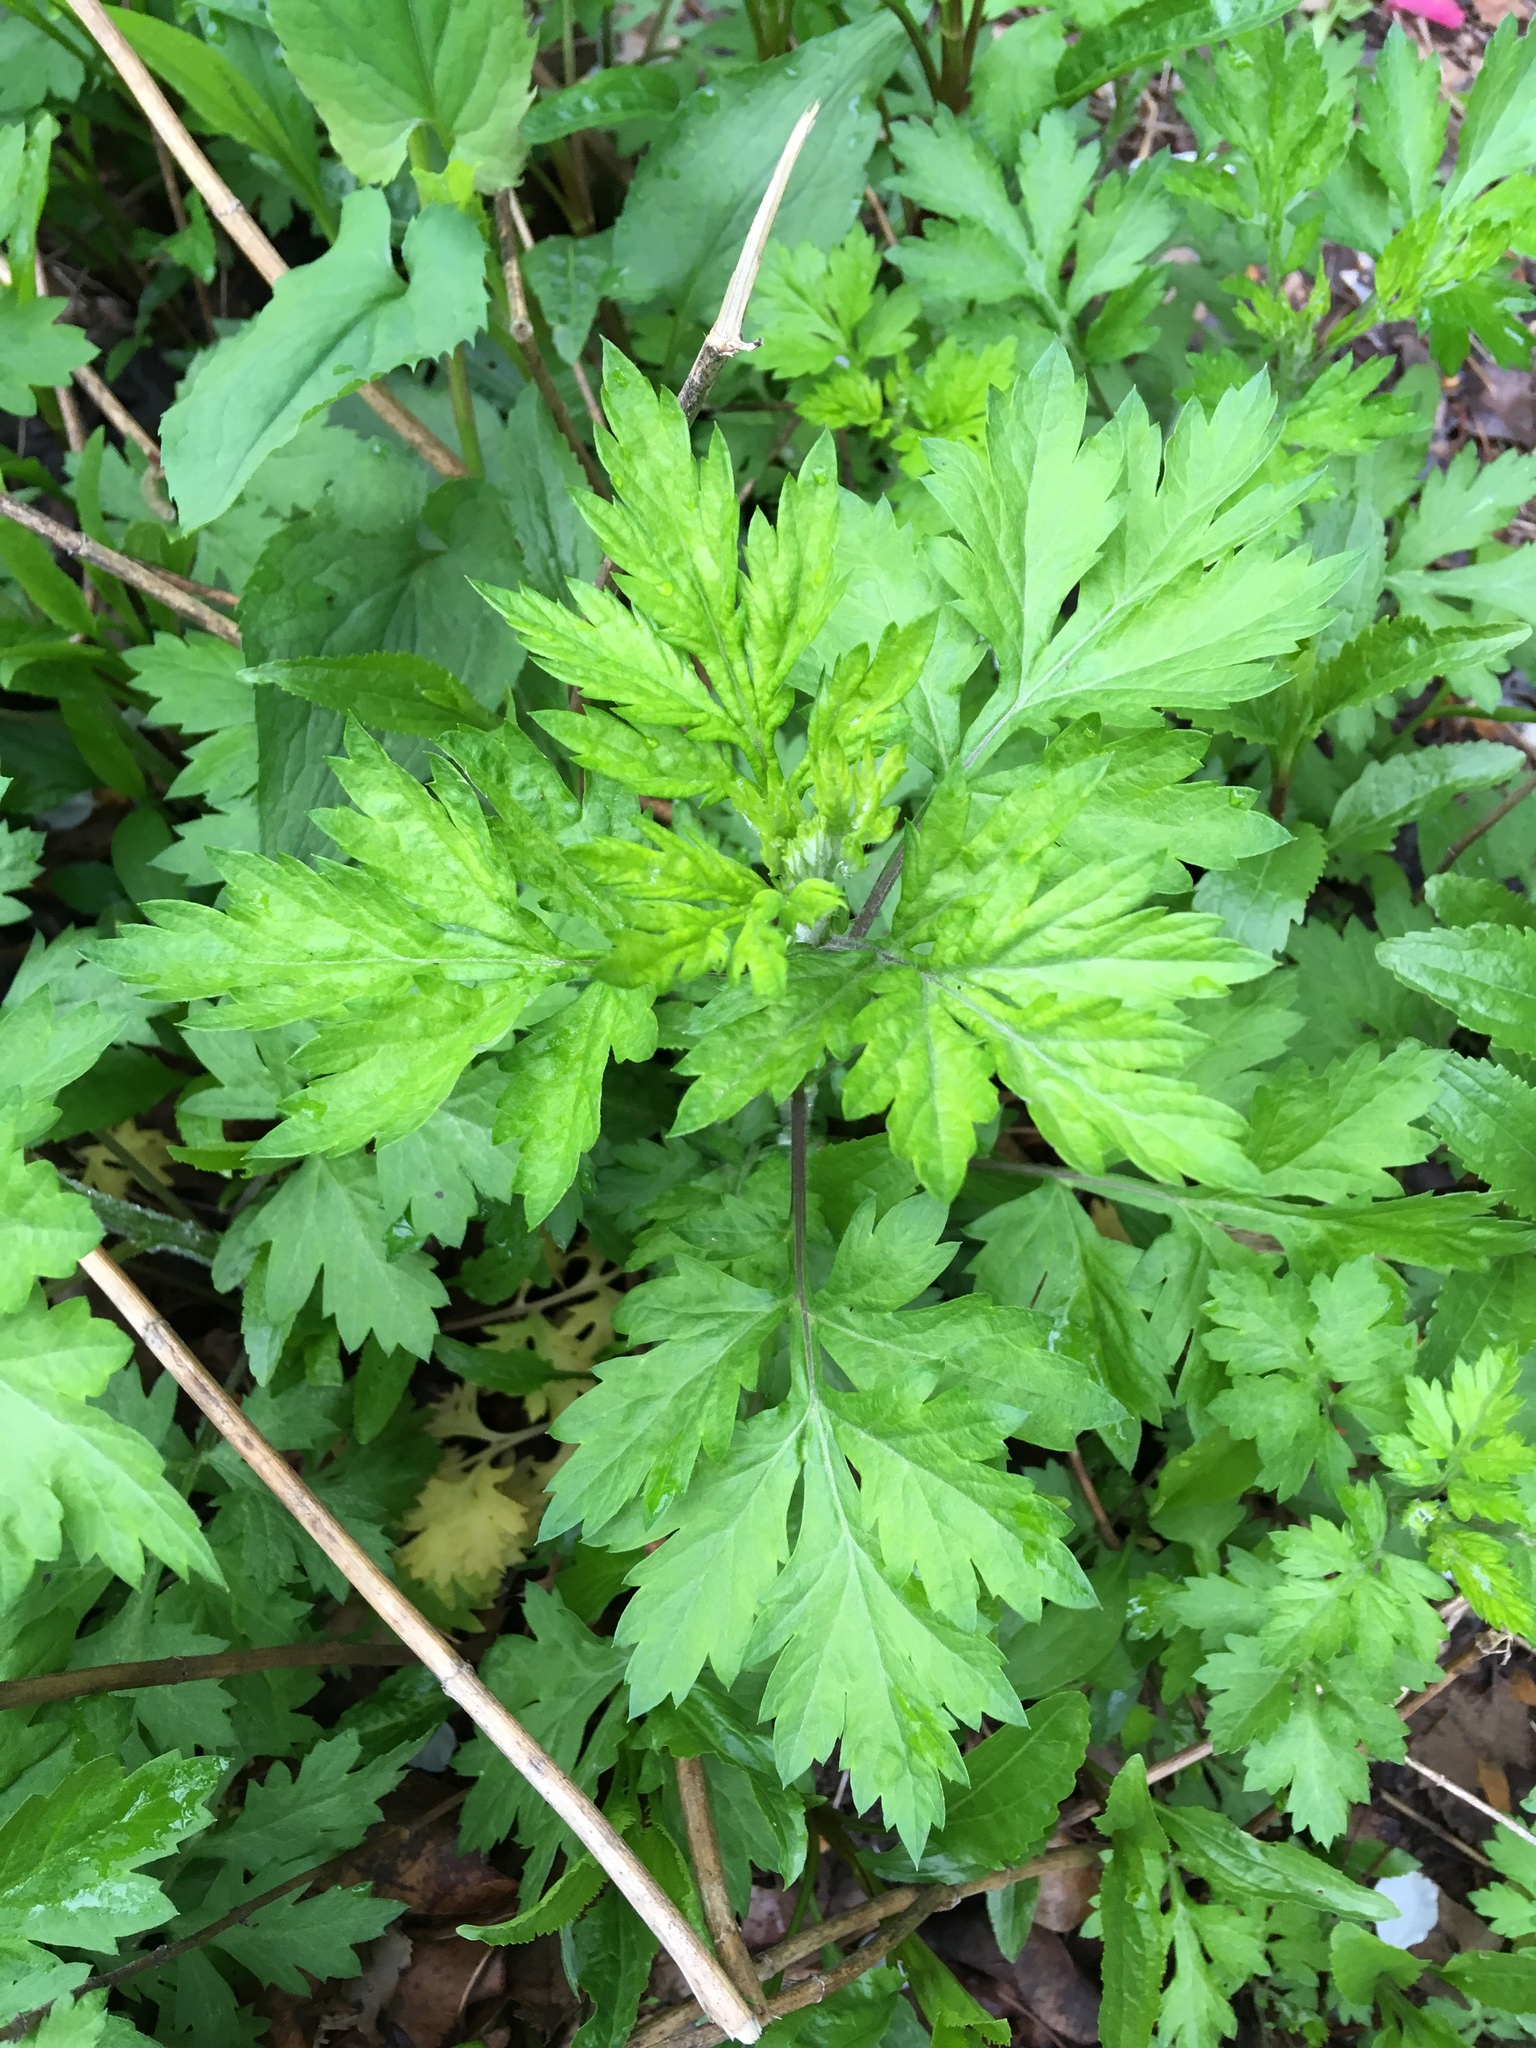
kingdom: Plantae
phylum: Tracheophyta
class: Magnoliopsida
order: Asterales
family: Asteraceae
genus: Artemisia
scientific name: Artemisia vulgaris
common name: Mugwort
